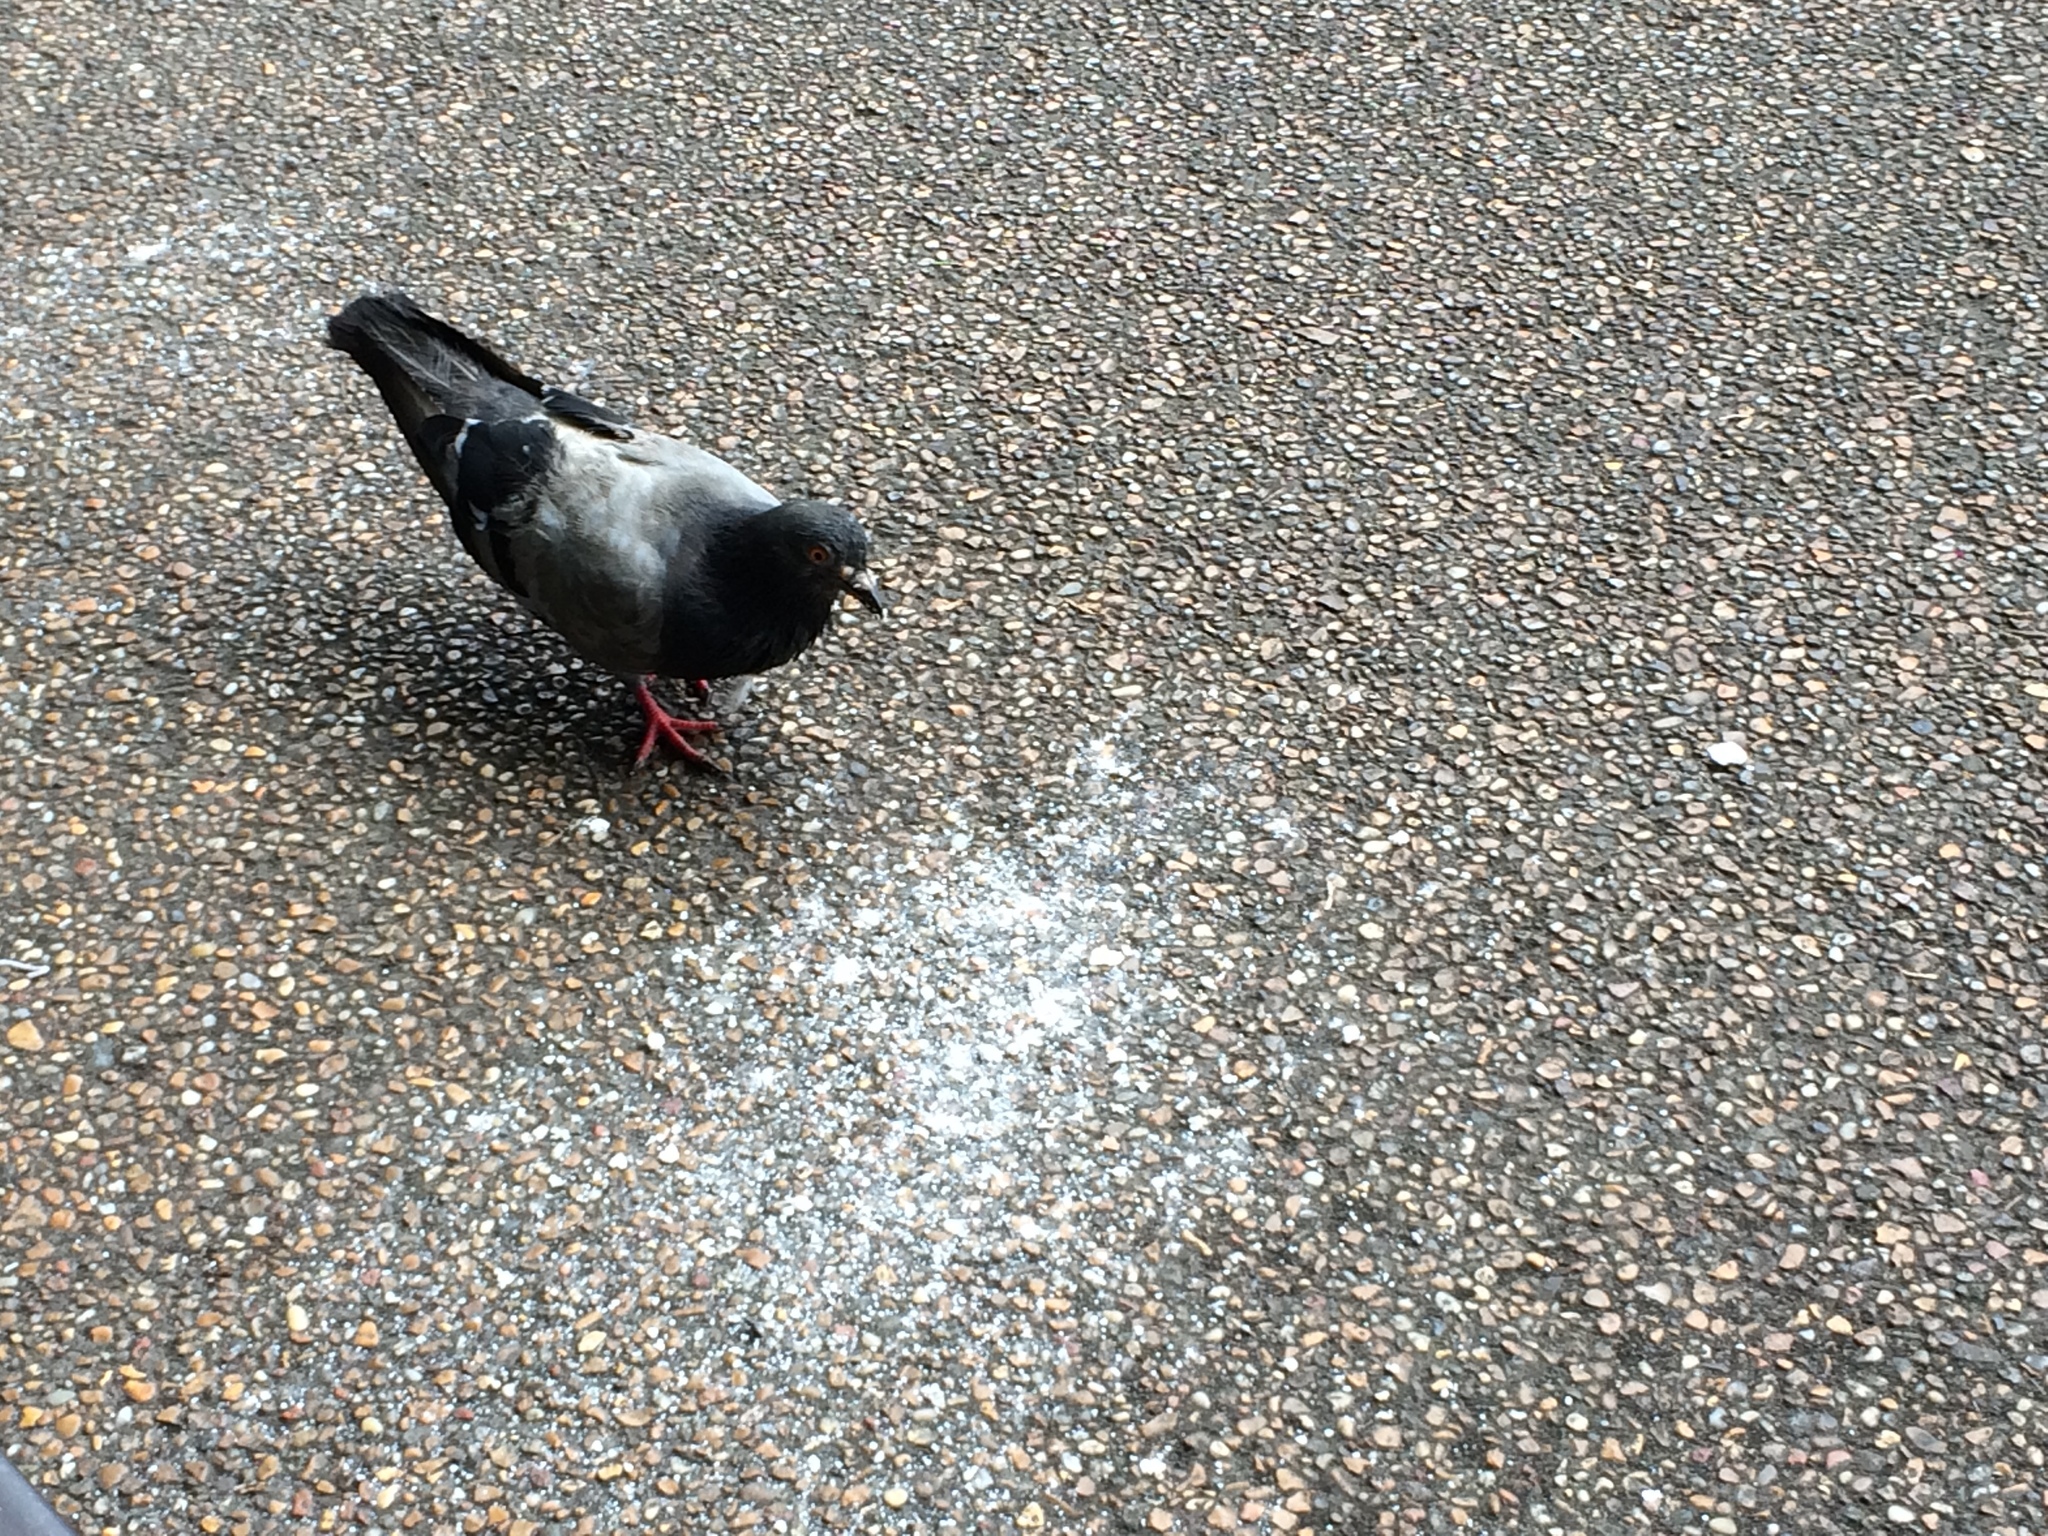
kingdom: Animalia
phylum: Chordata
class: Aves
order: Columbiformes
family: Columbidae
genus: Columba
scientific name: Columba livia
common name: Rock pigeon
